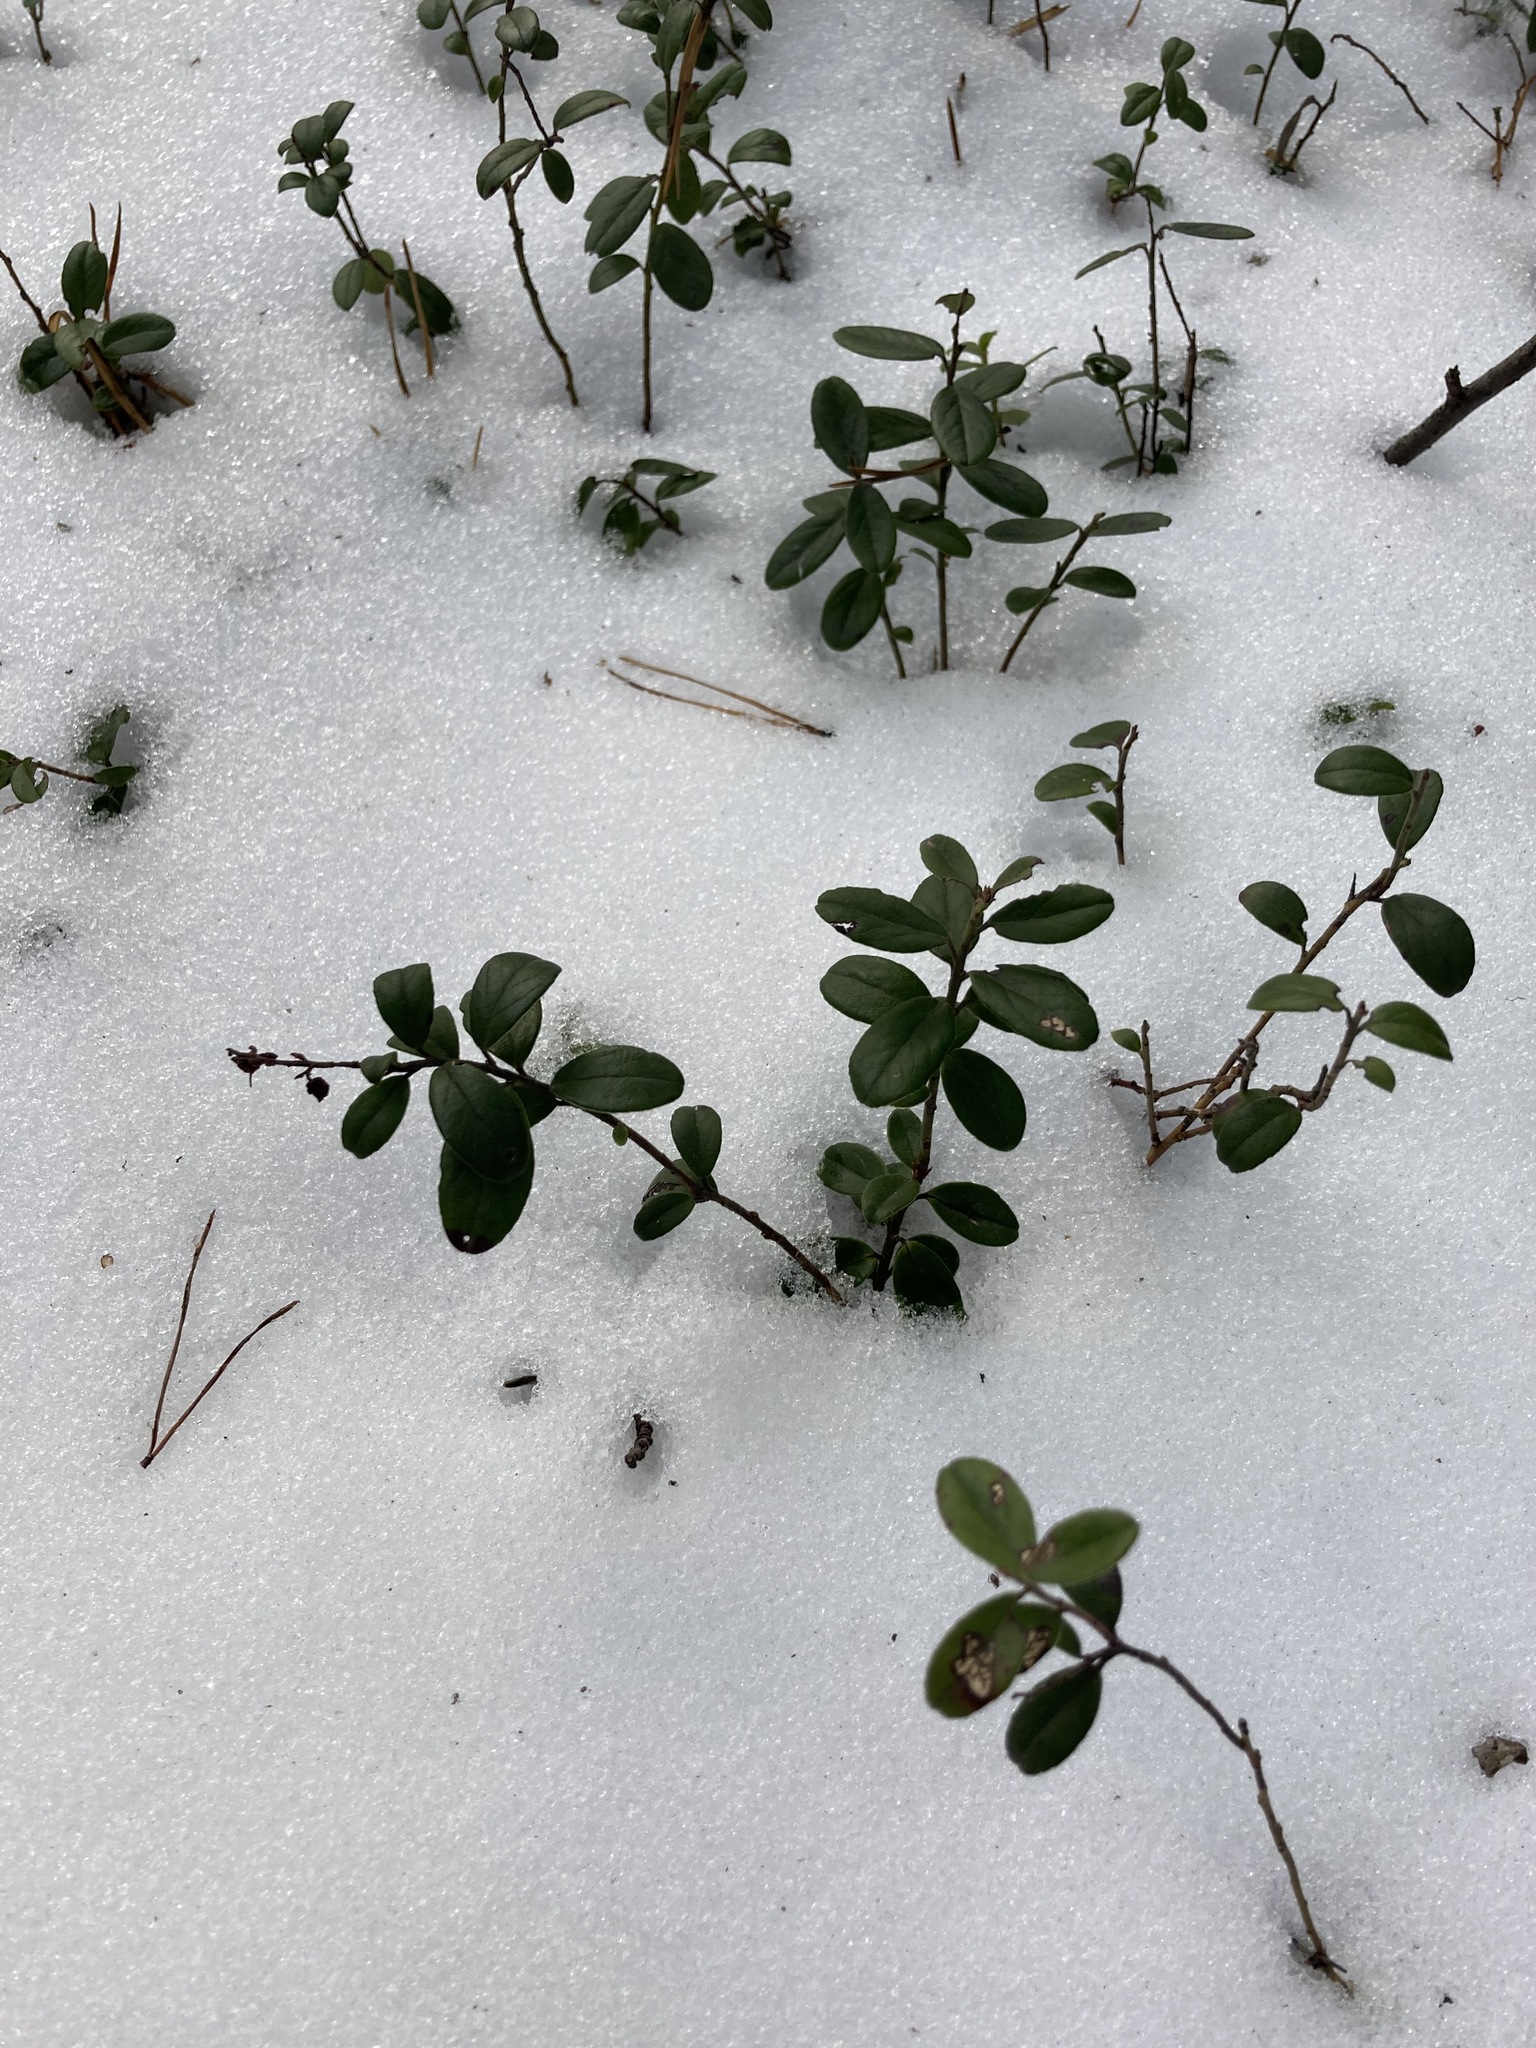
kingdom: Plantae
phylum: Tracheophyta
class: Magnoliopsida
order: Ericales
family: Ericaceae
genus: Vaccinium
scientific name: Vaccinium vitis-idaea
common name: Cowberry
